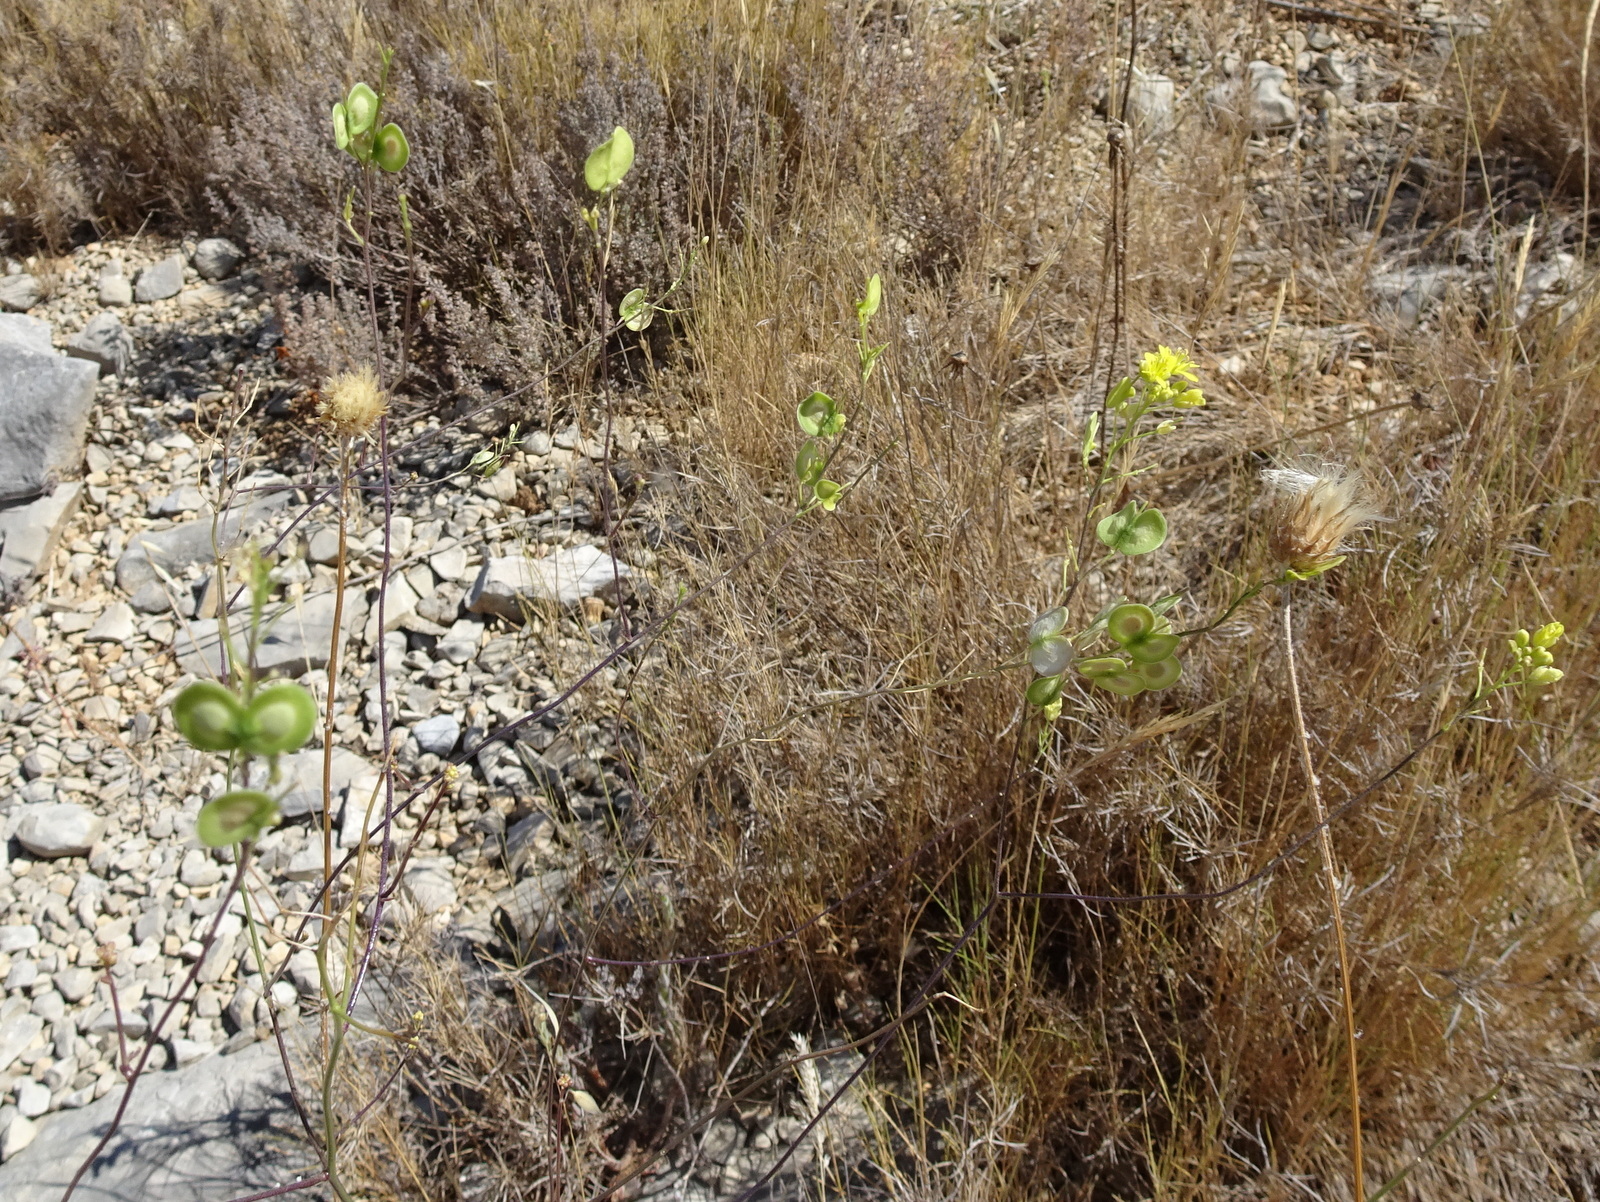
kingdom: Plantae
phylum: Tracheophyta
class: Magnoliopsida
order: Brassicales
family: Brassicaceae
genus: Biscutella
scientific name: Biscutella laevigata
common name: Buckler mustard
